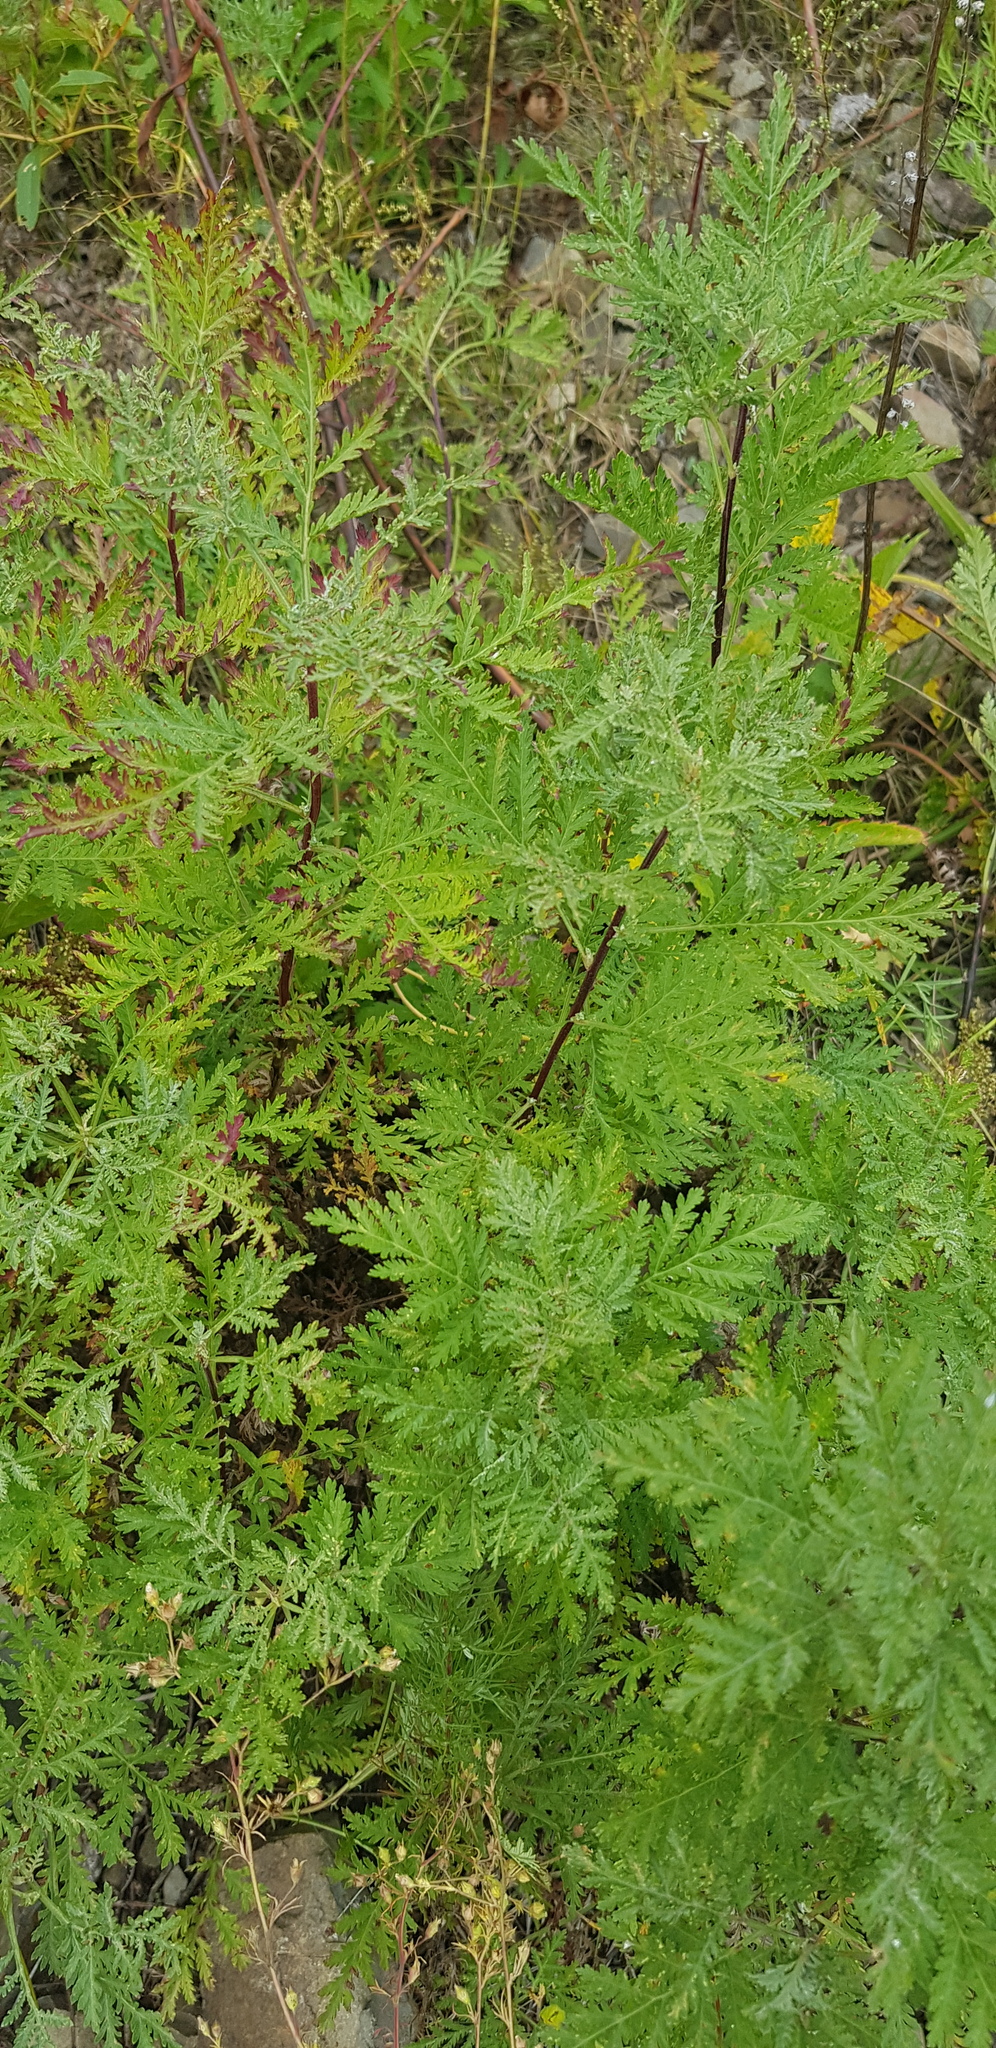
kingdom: Plantae
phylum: Tracheophyta
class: Magnoliopsida
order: Asterales
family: Asteraceae
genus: Artemisia
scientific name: Artemisia gmelinii
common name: Gmelin's wormwood
